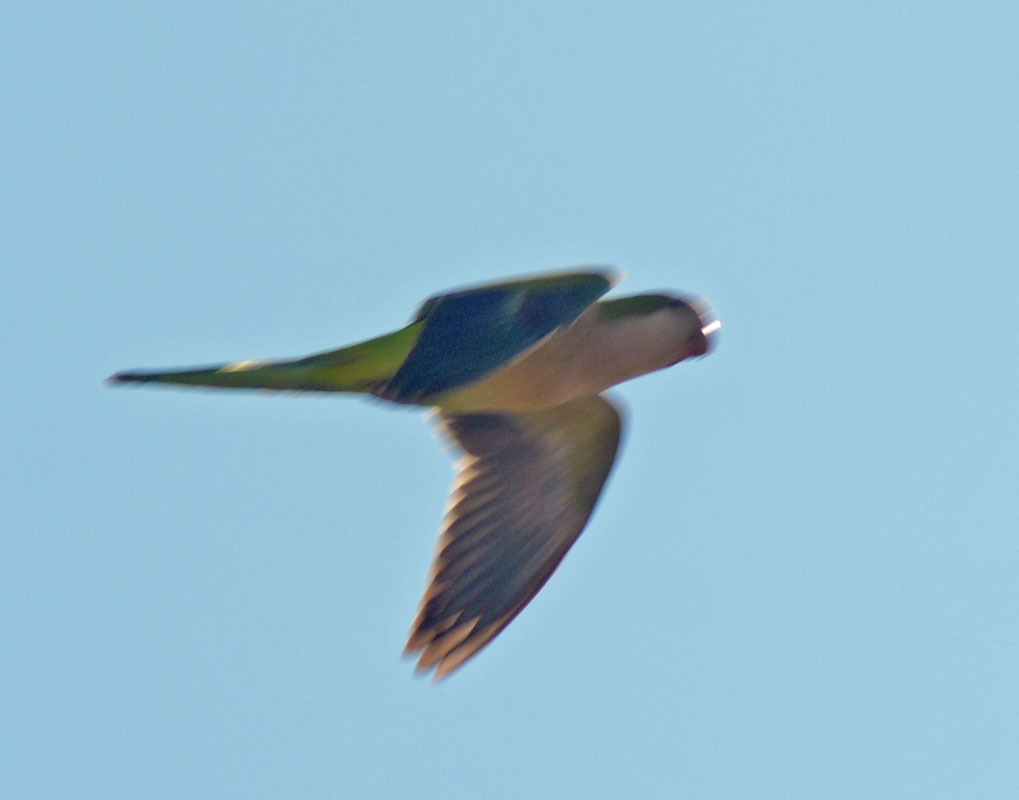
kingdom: Animalia
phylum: Chordata
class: Aves
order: Psittaciformes
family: Psittacidae
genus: Myiopsitta
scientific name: Myiopsitta monachus
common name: Monk parakeet
